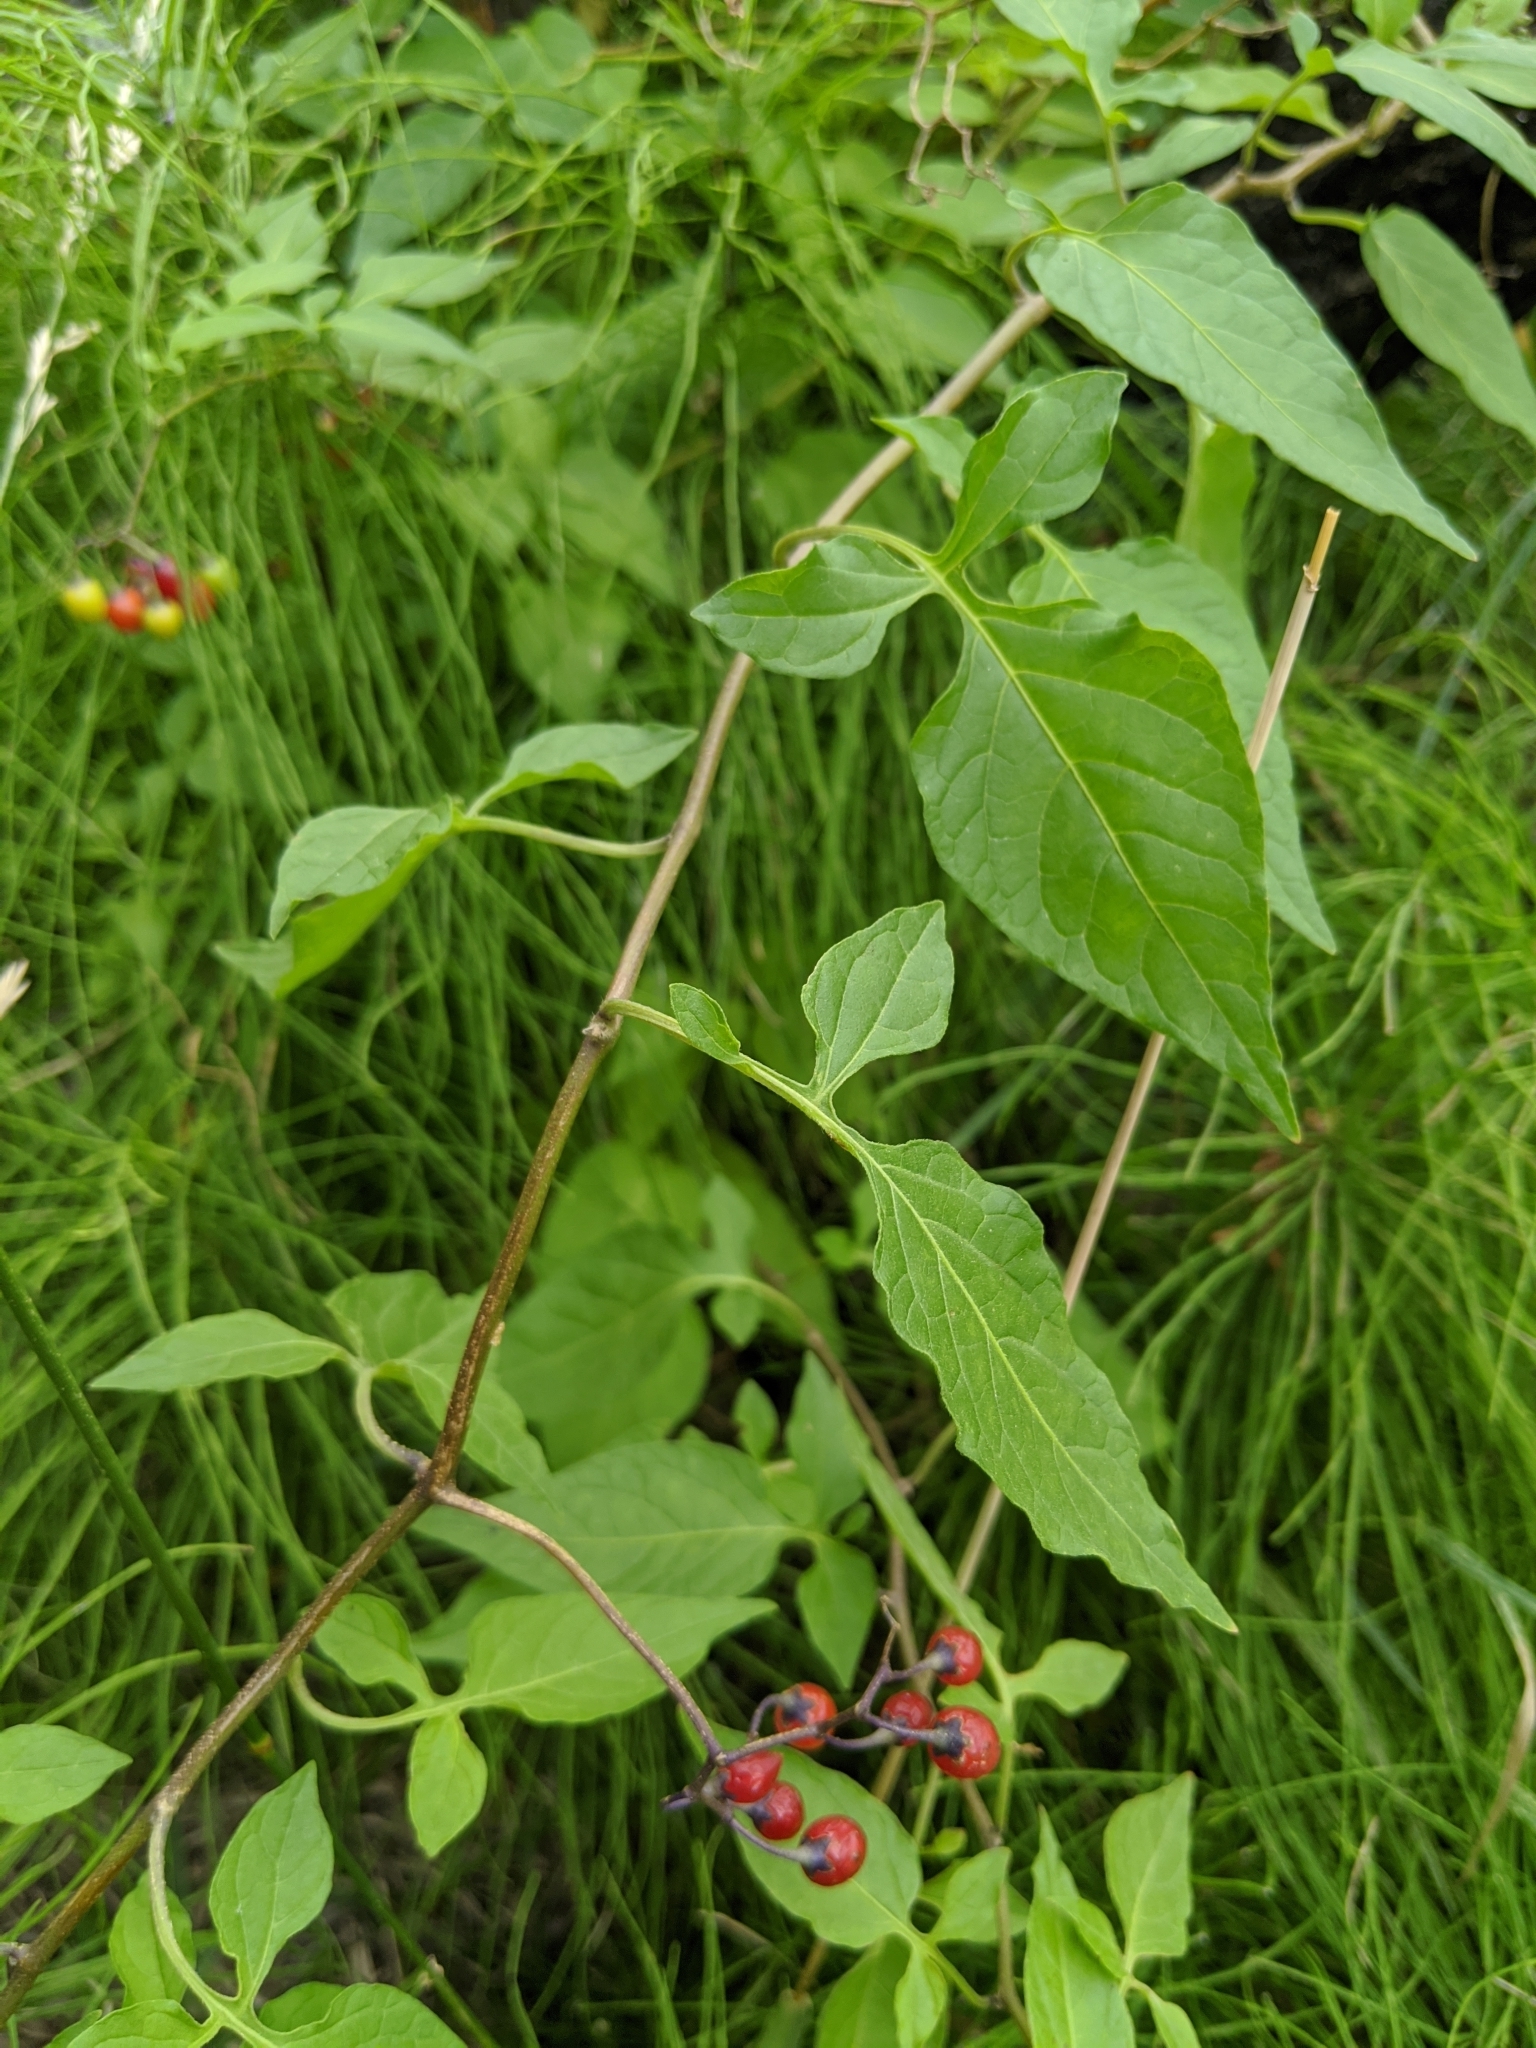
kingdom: Plantae
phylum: Tracheophyta
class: Magnoliopsida
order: Solanales
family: Solanaceae
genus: Solanum
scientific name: Solanum dulcamara
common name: Climbing nightshade
